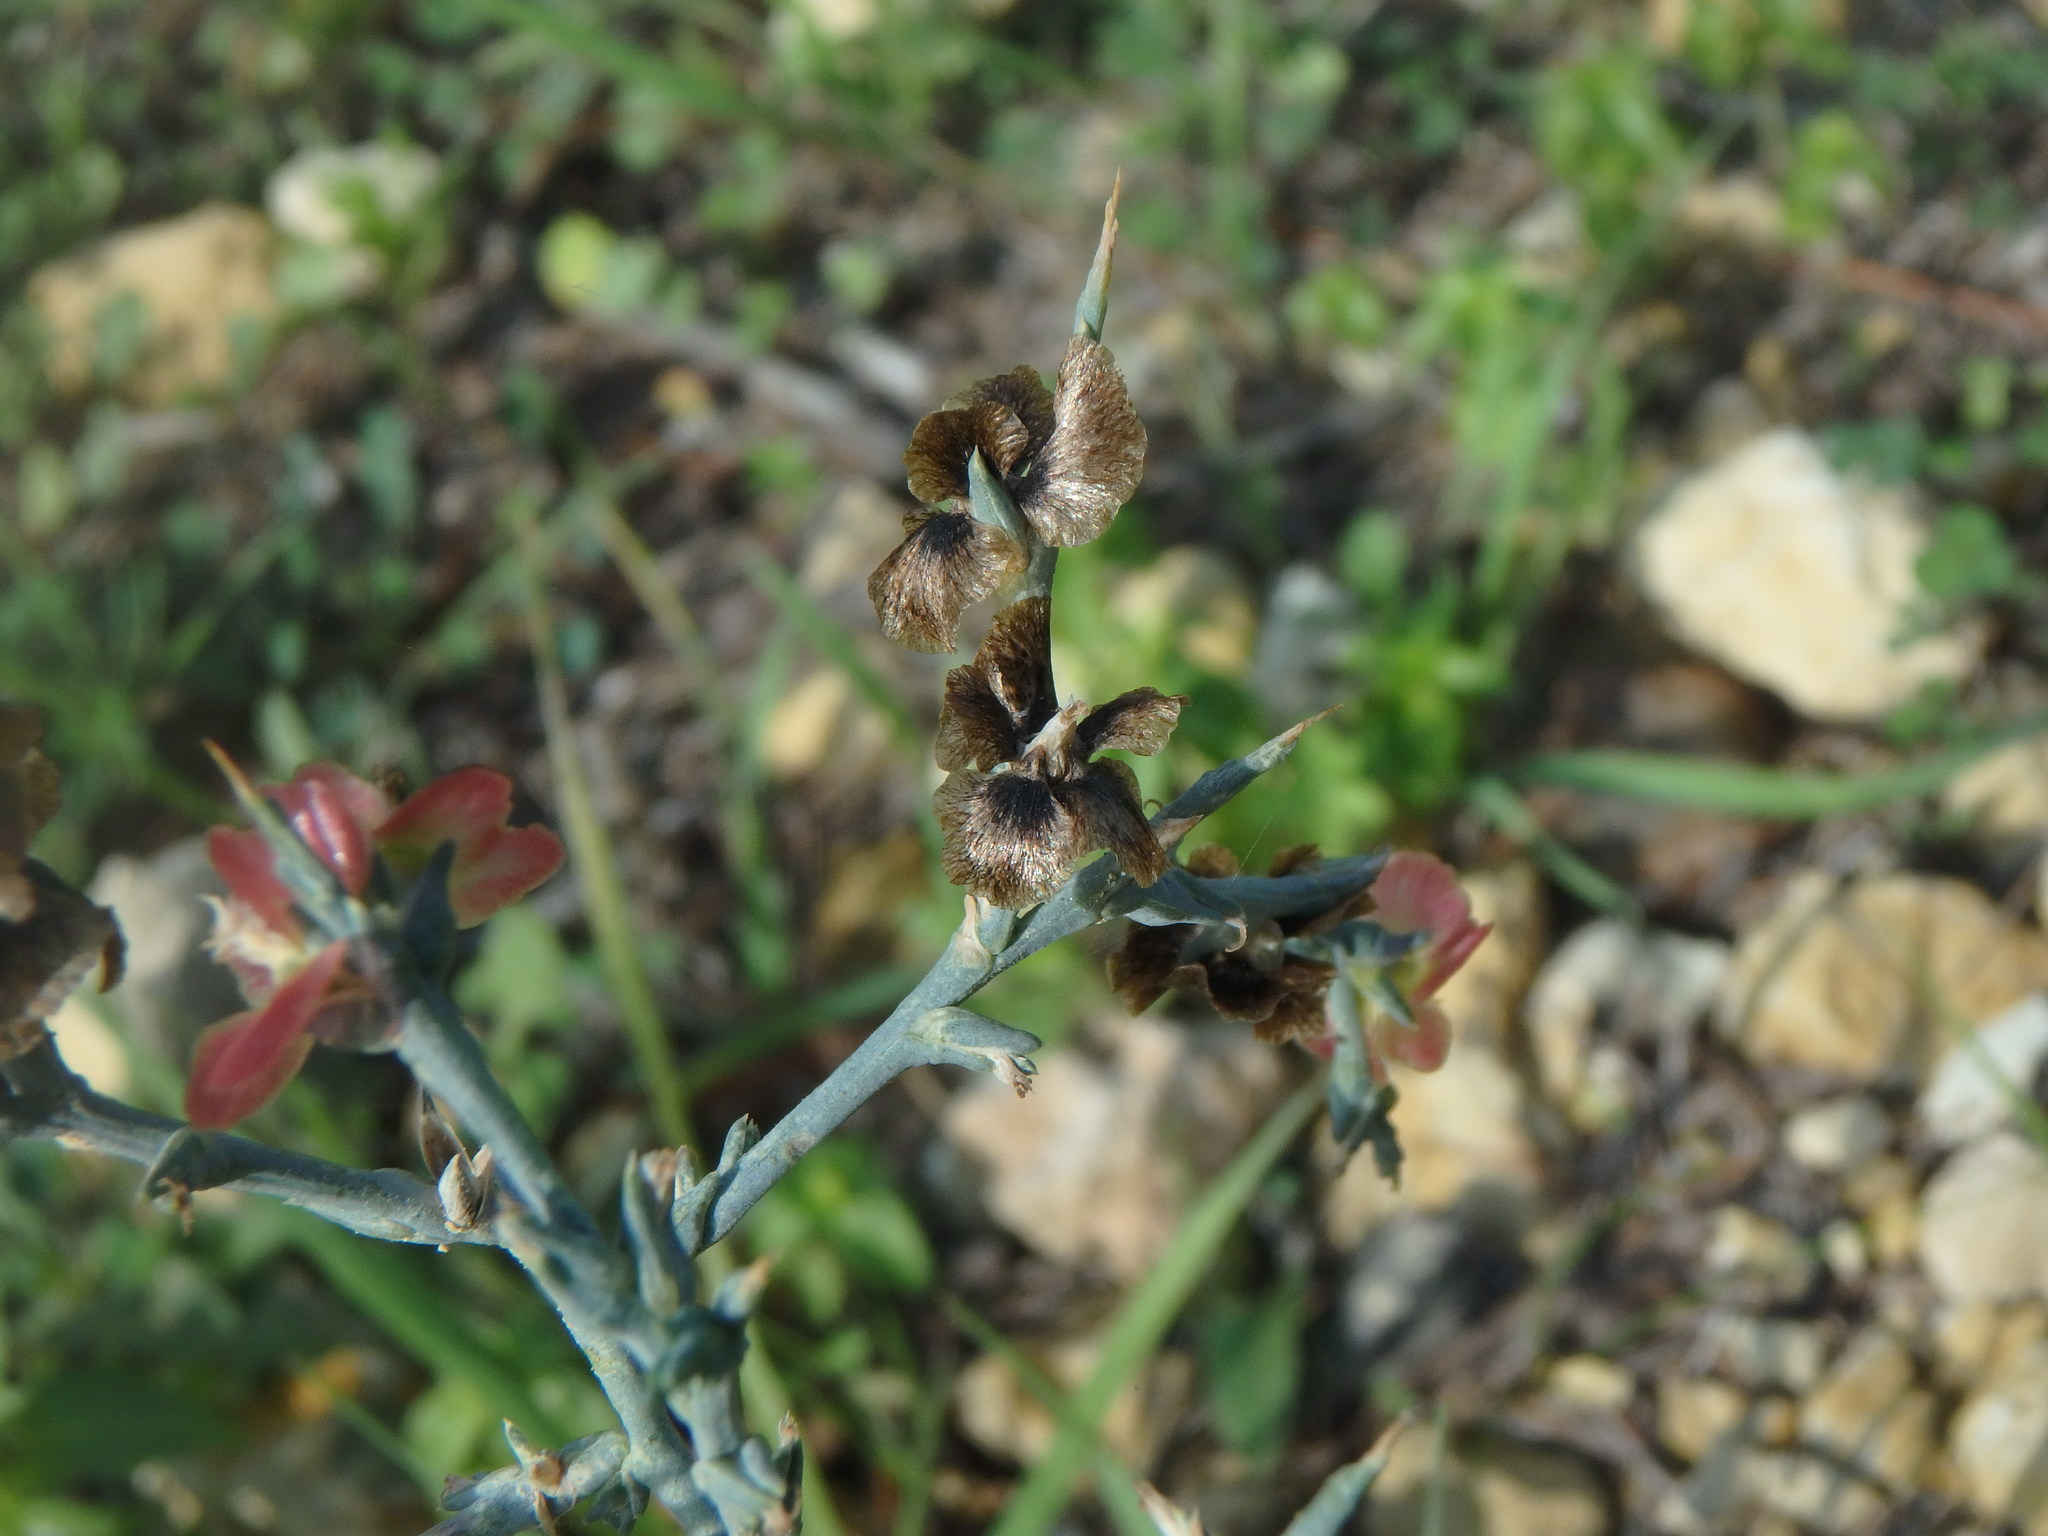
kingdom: Plantae
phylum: Tracheophyta
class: Magnoliopsida
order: Caryophyllales
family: Amaranthaceae
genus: Noaea
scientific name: Noaea mucronata
